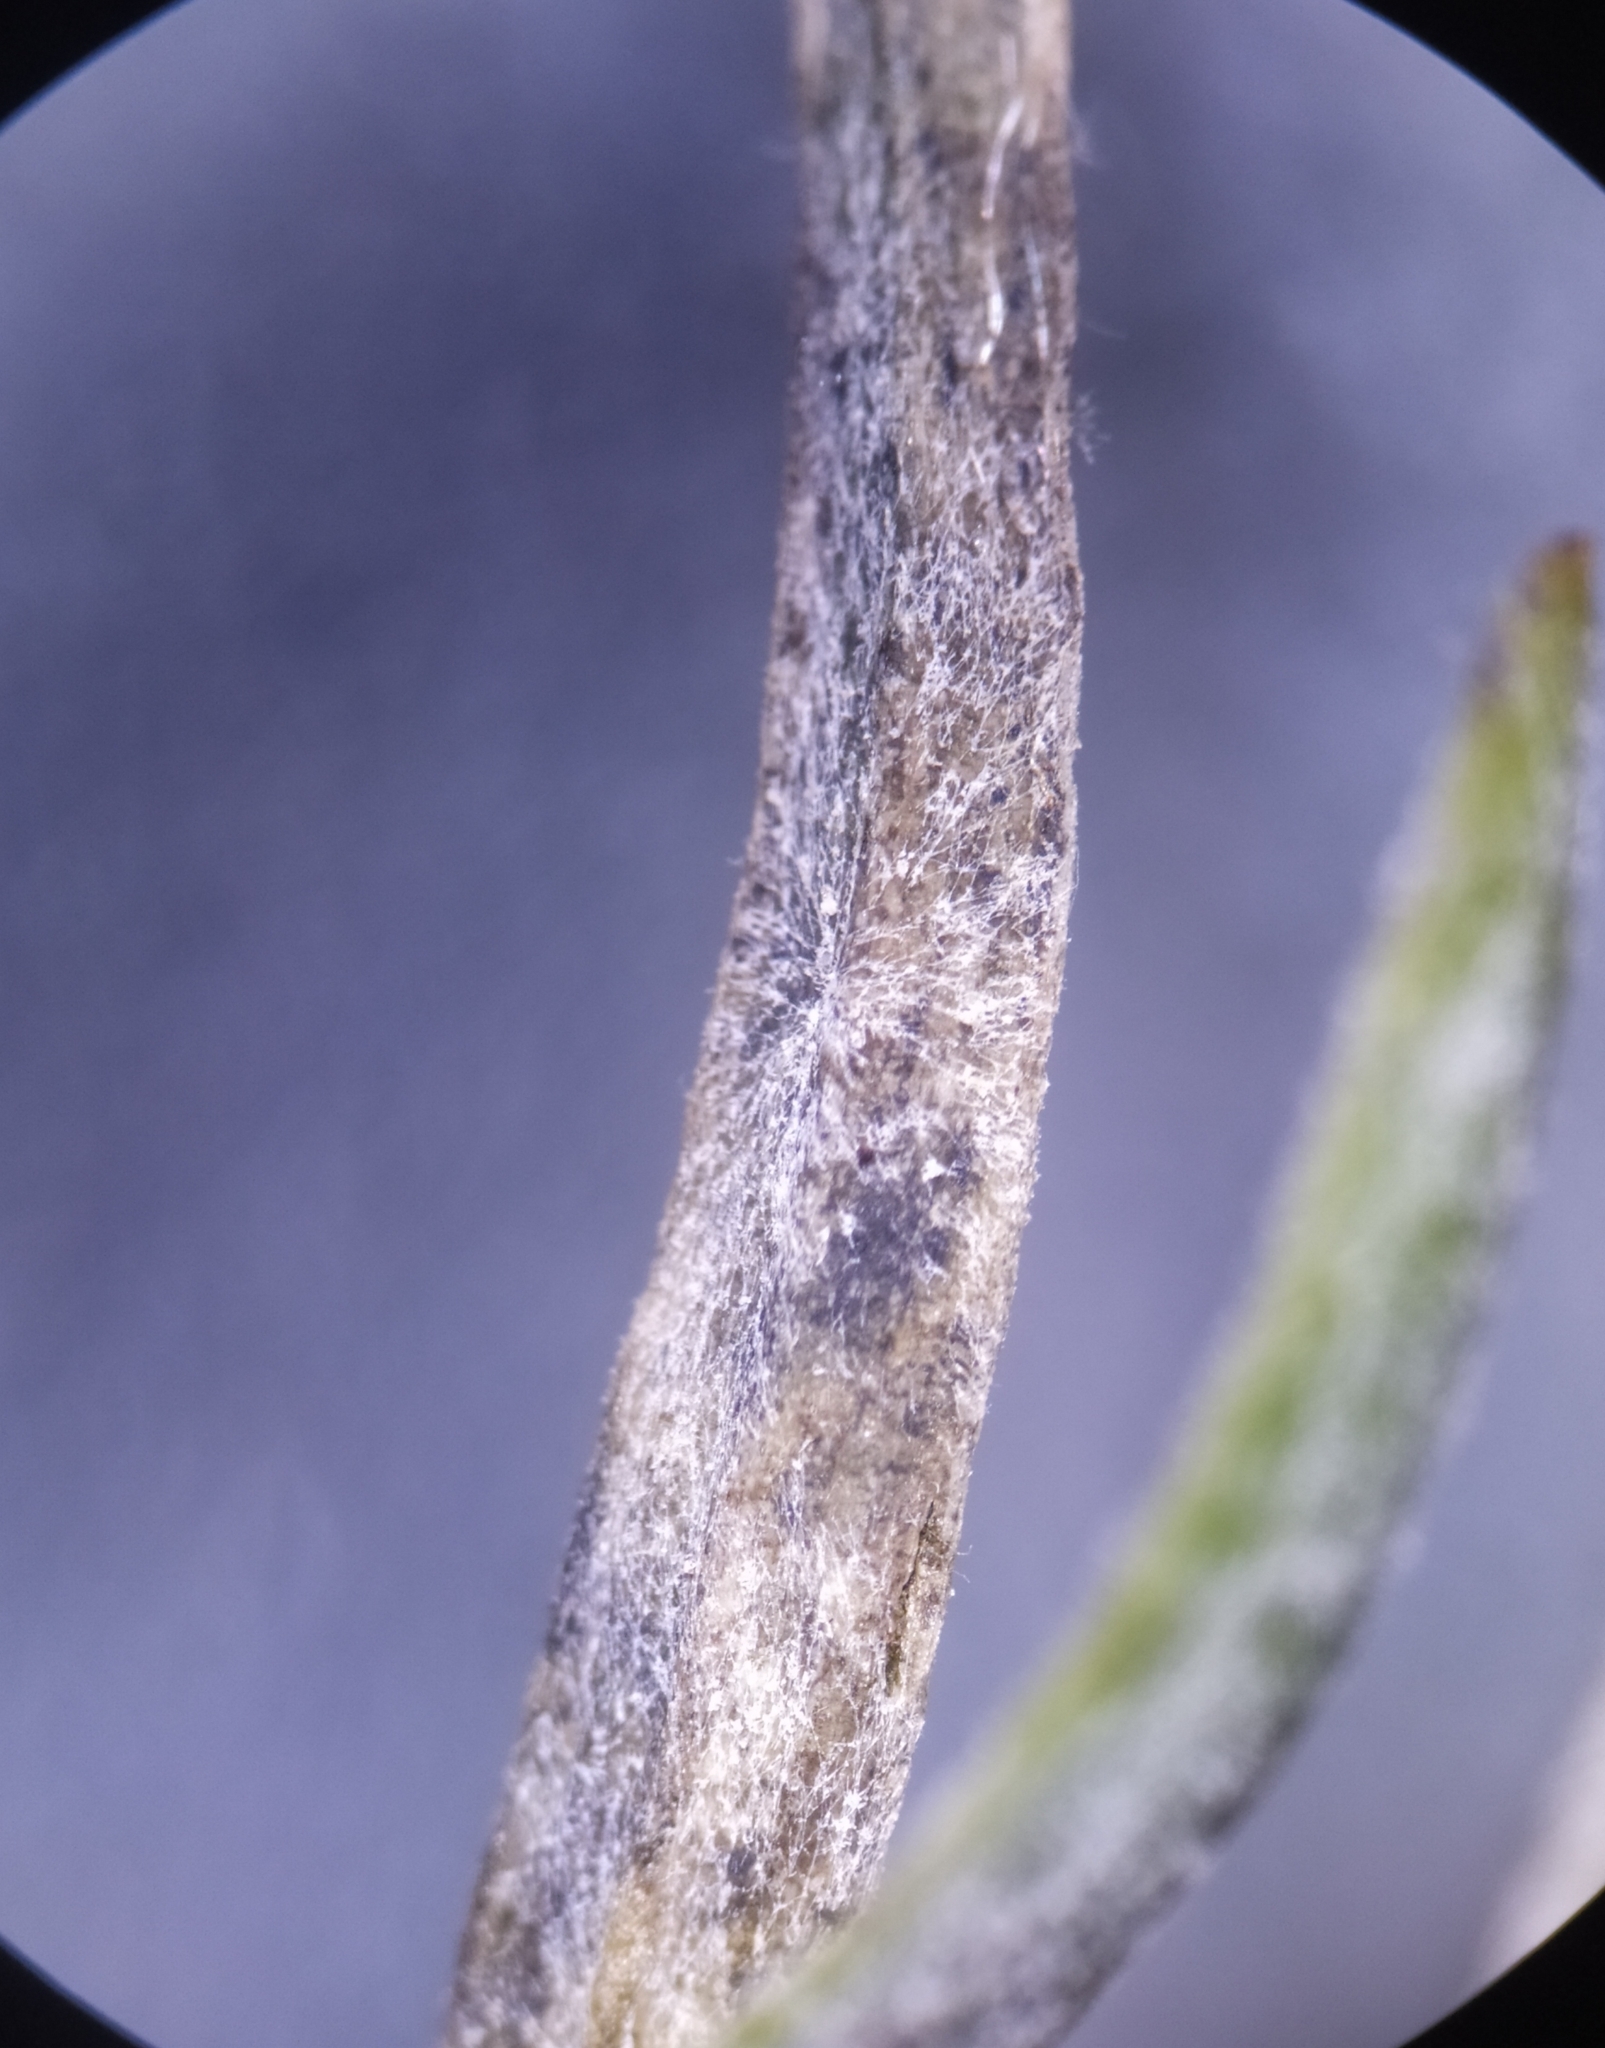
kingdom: Fungi
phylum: Ascomycota
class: Leotiomycetes
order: Helotiales
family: Erysiphaceae
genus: Erysiphe
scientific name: Erysiphe thesii
